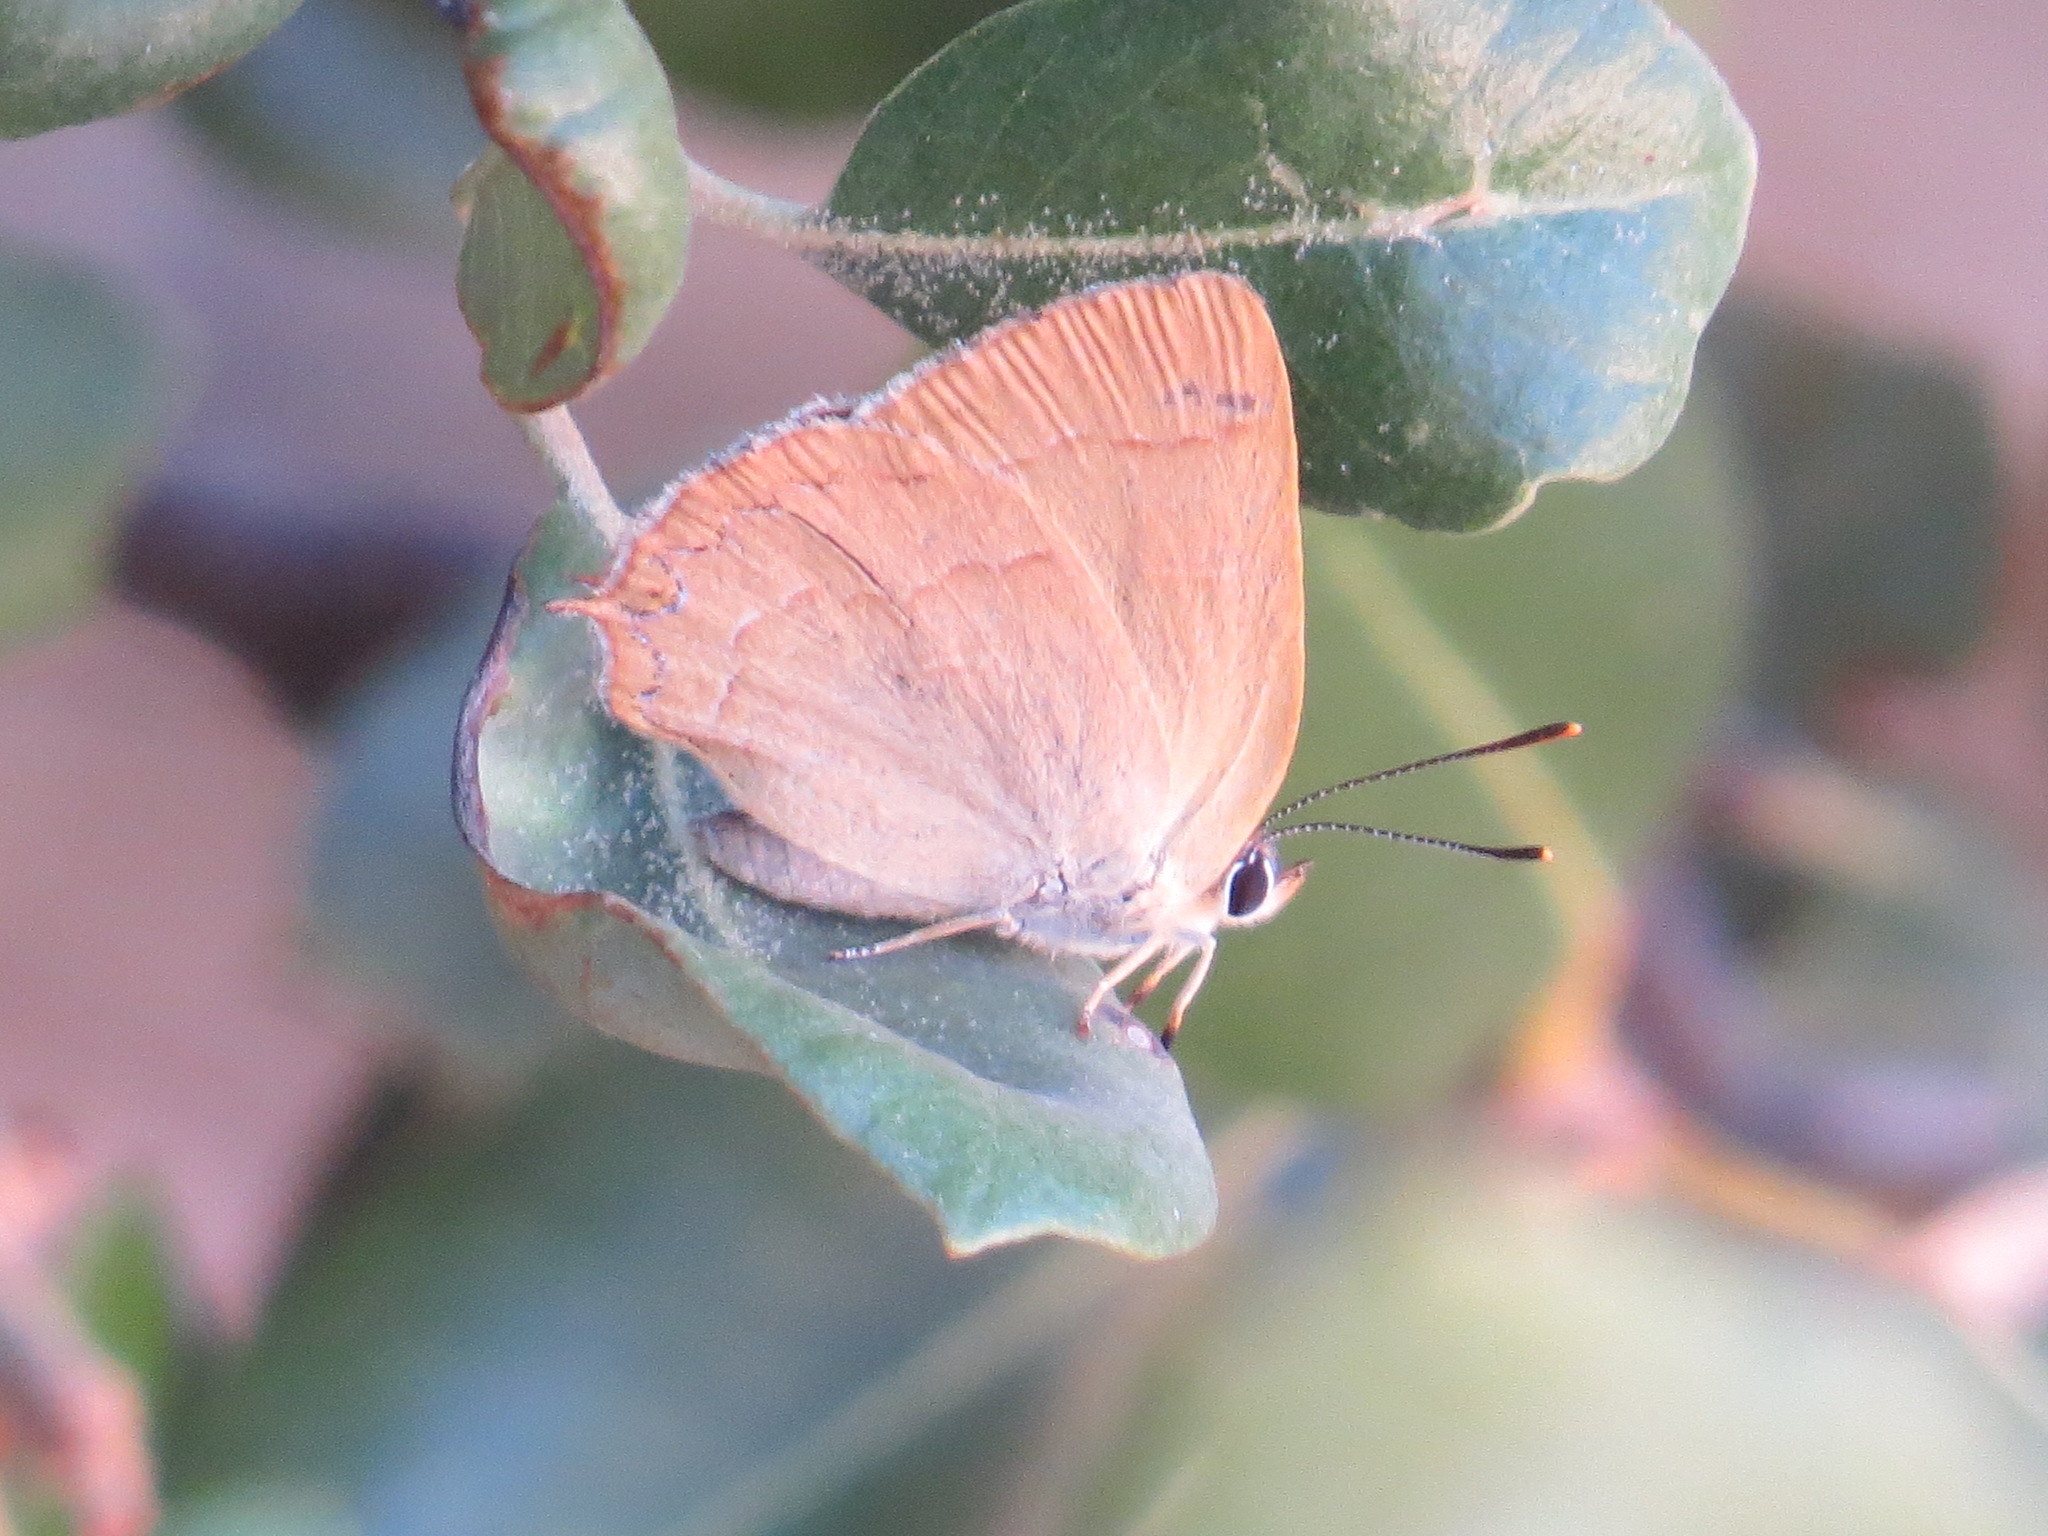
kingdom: Animalia
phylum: Arthropoda
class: Insecta
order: Lepidoptera
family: Lycaenidae
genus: Habrodais
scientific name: Habrodais grunus
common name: Golden hairstreak
